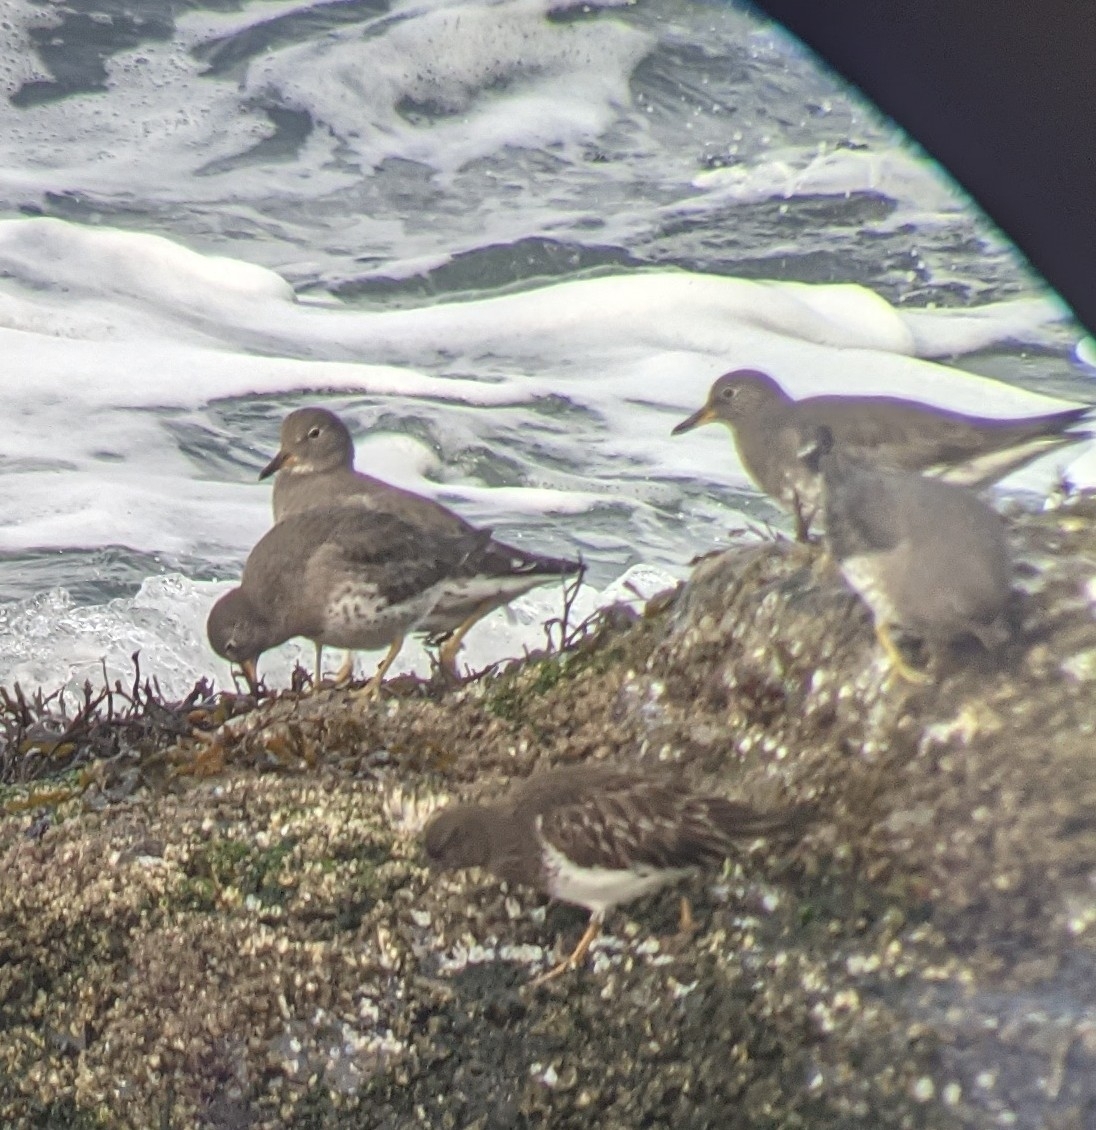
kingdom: Animalia
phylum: Chordata
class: Aves
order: Charadriiformes
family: Scolopacidae
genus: Calidris
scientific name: Calidris virgata
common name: Surfbird
